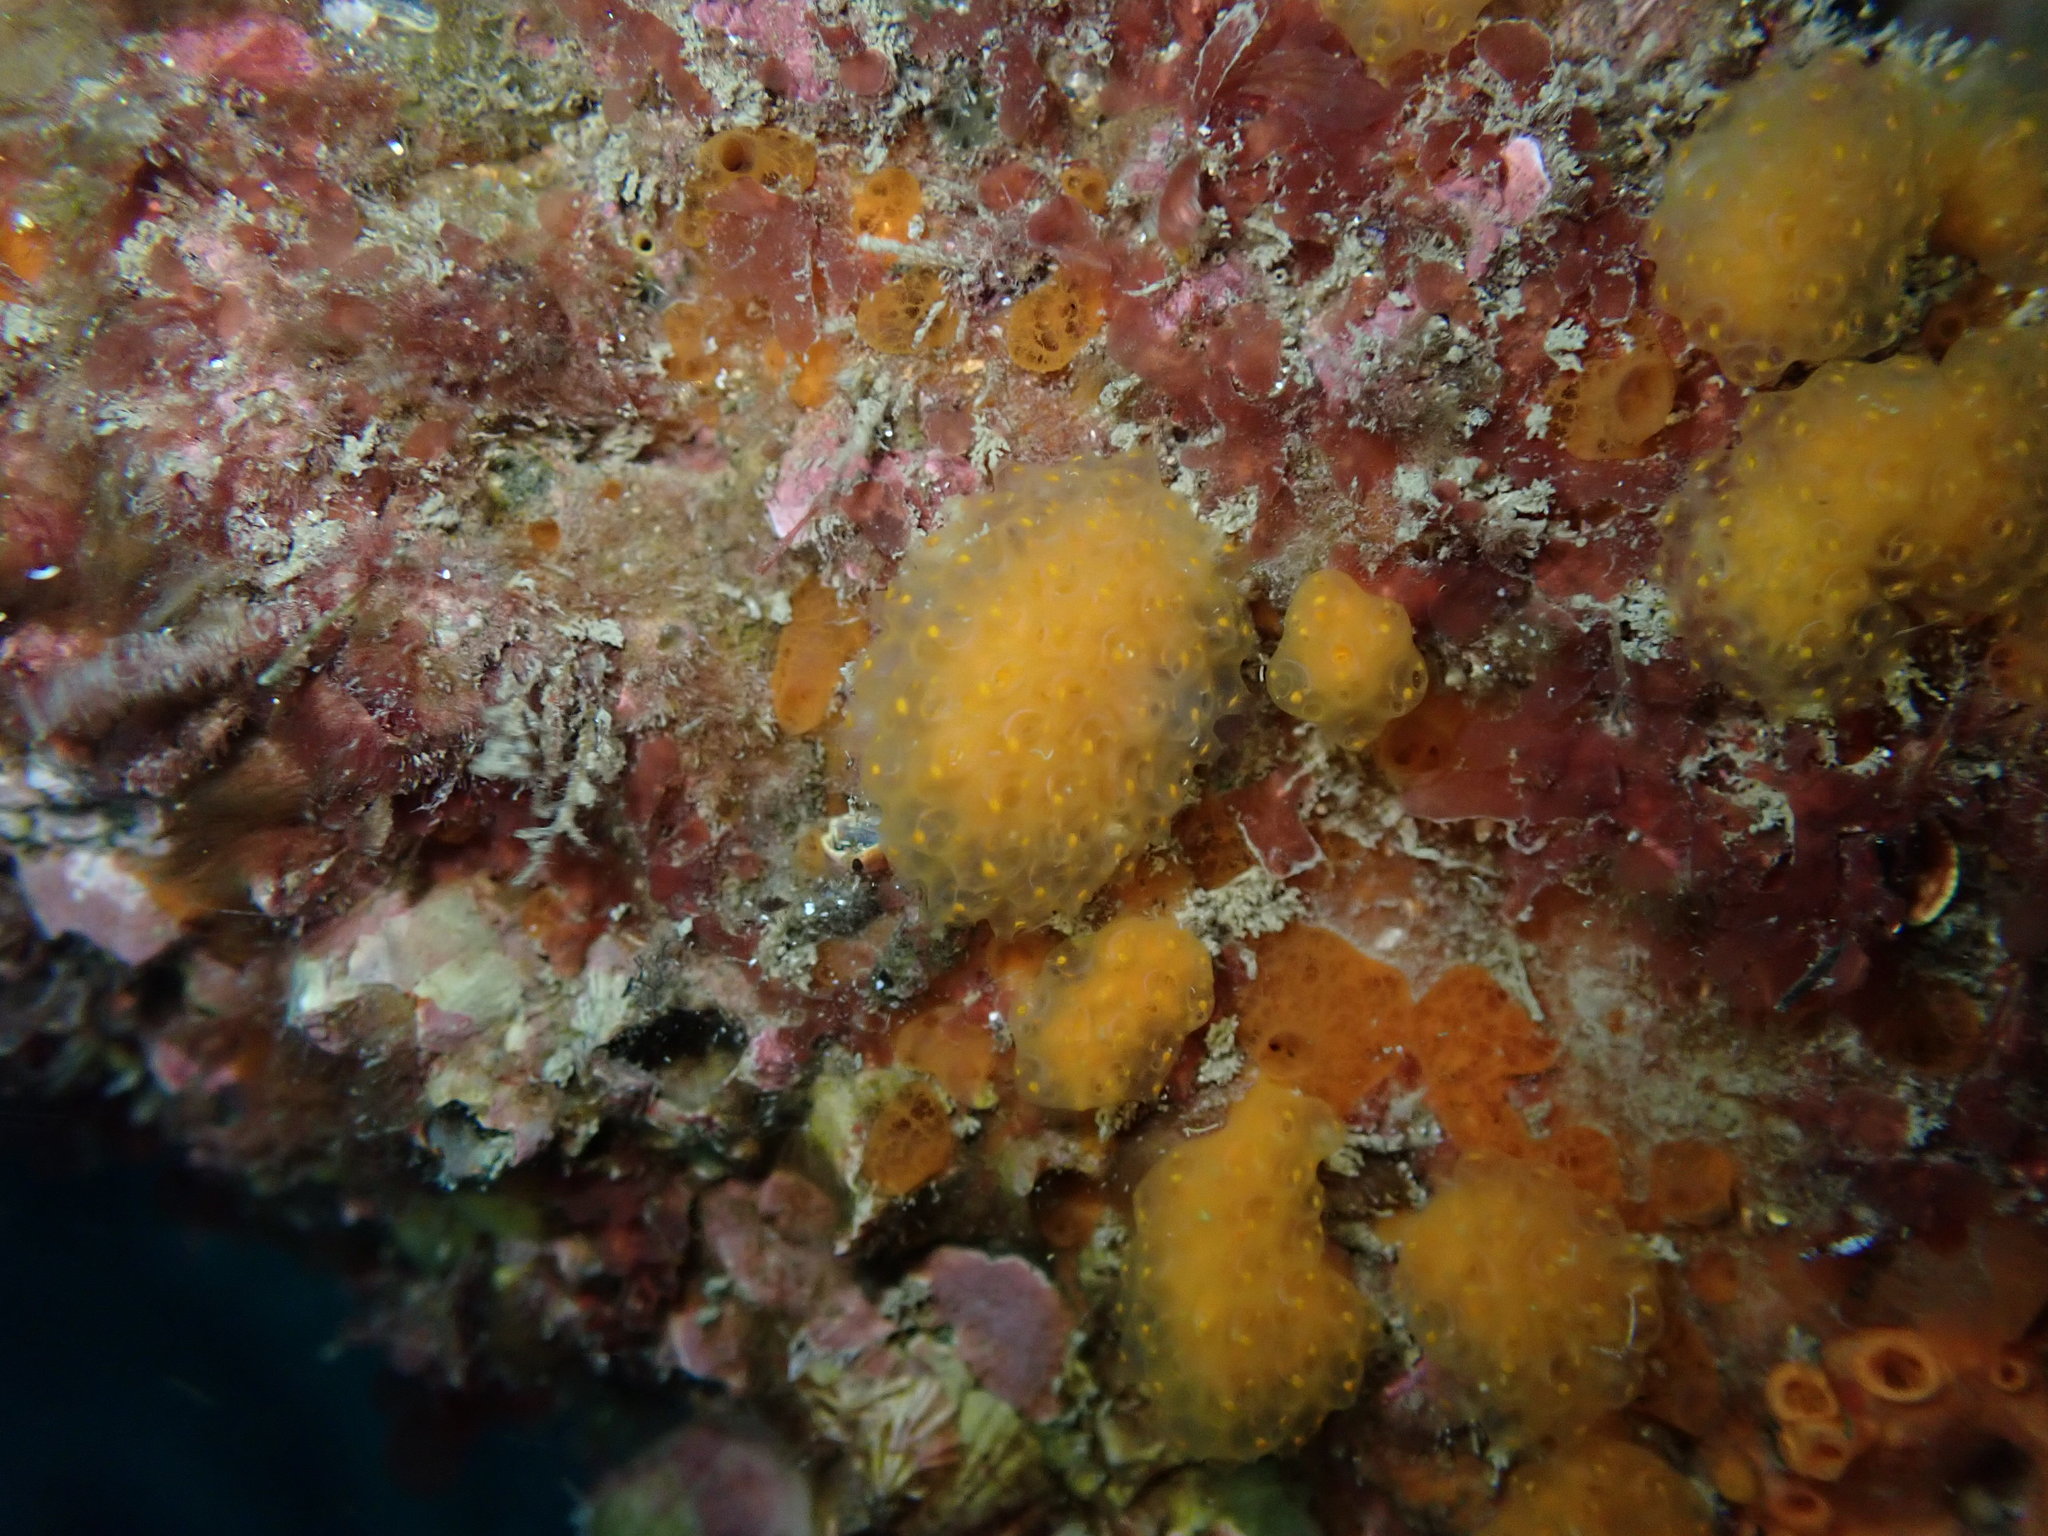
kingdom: Animalia
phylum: Chordata
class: Ascidiacea
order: Aplousobranchia
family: Pseudodistomidae
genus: Pseudodistoma
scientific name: Pseudodistoma novaezelandiae
